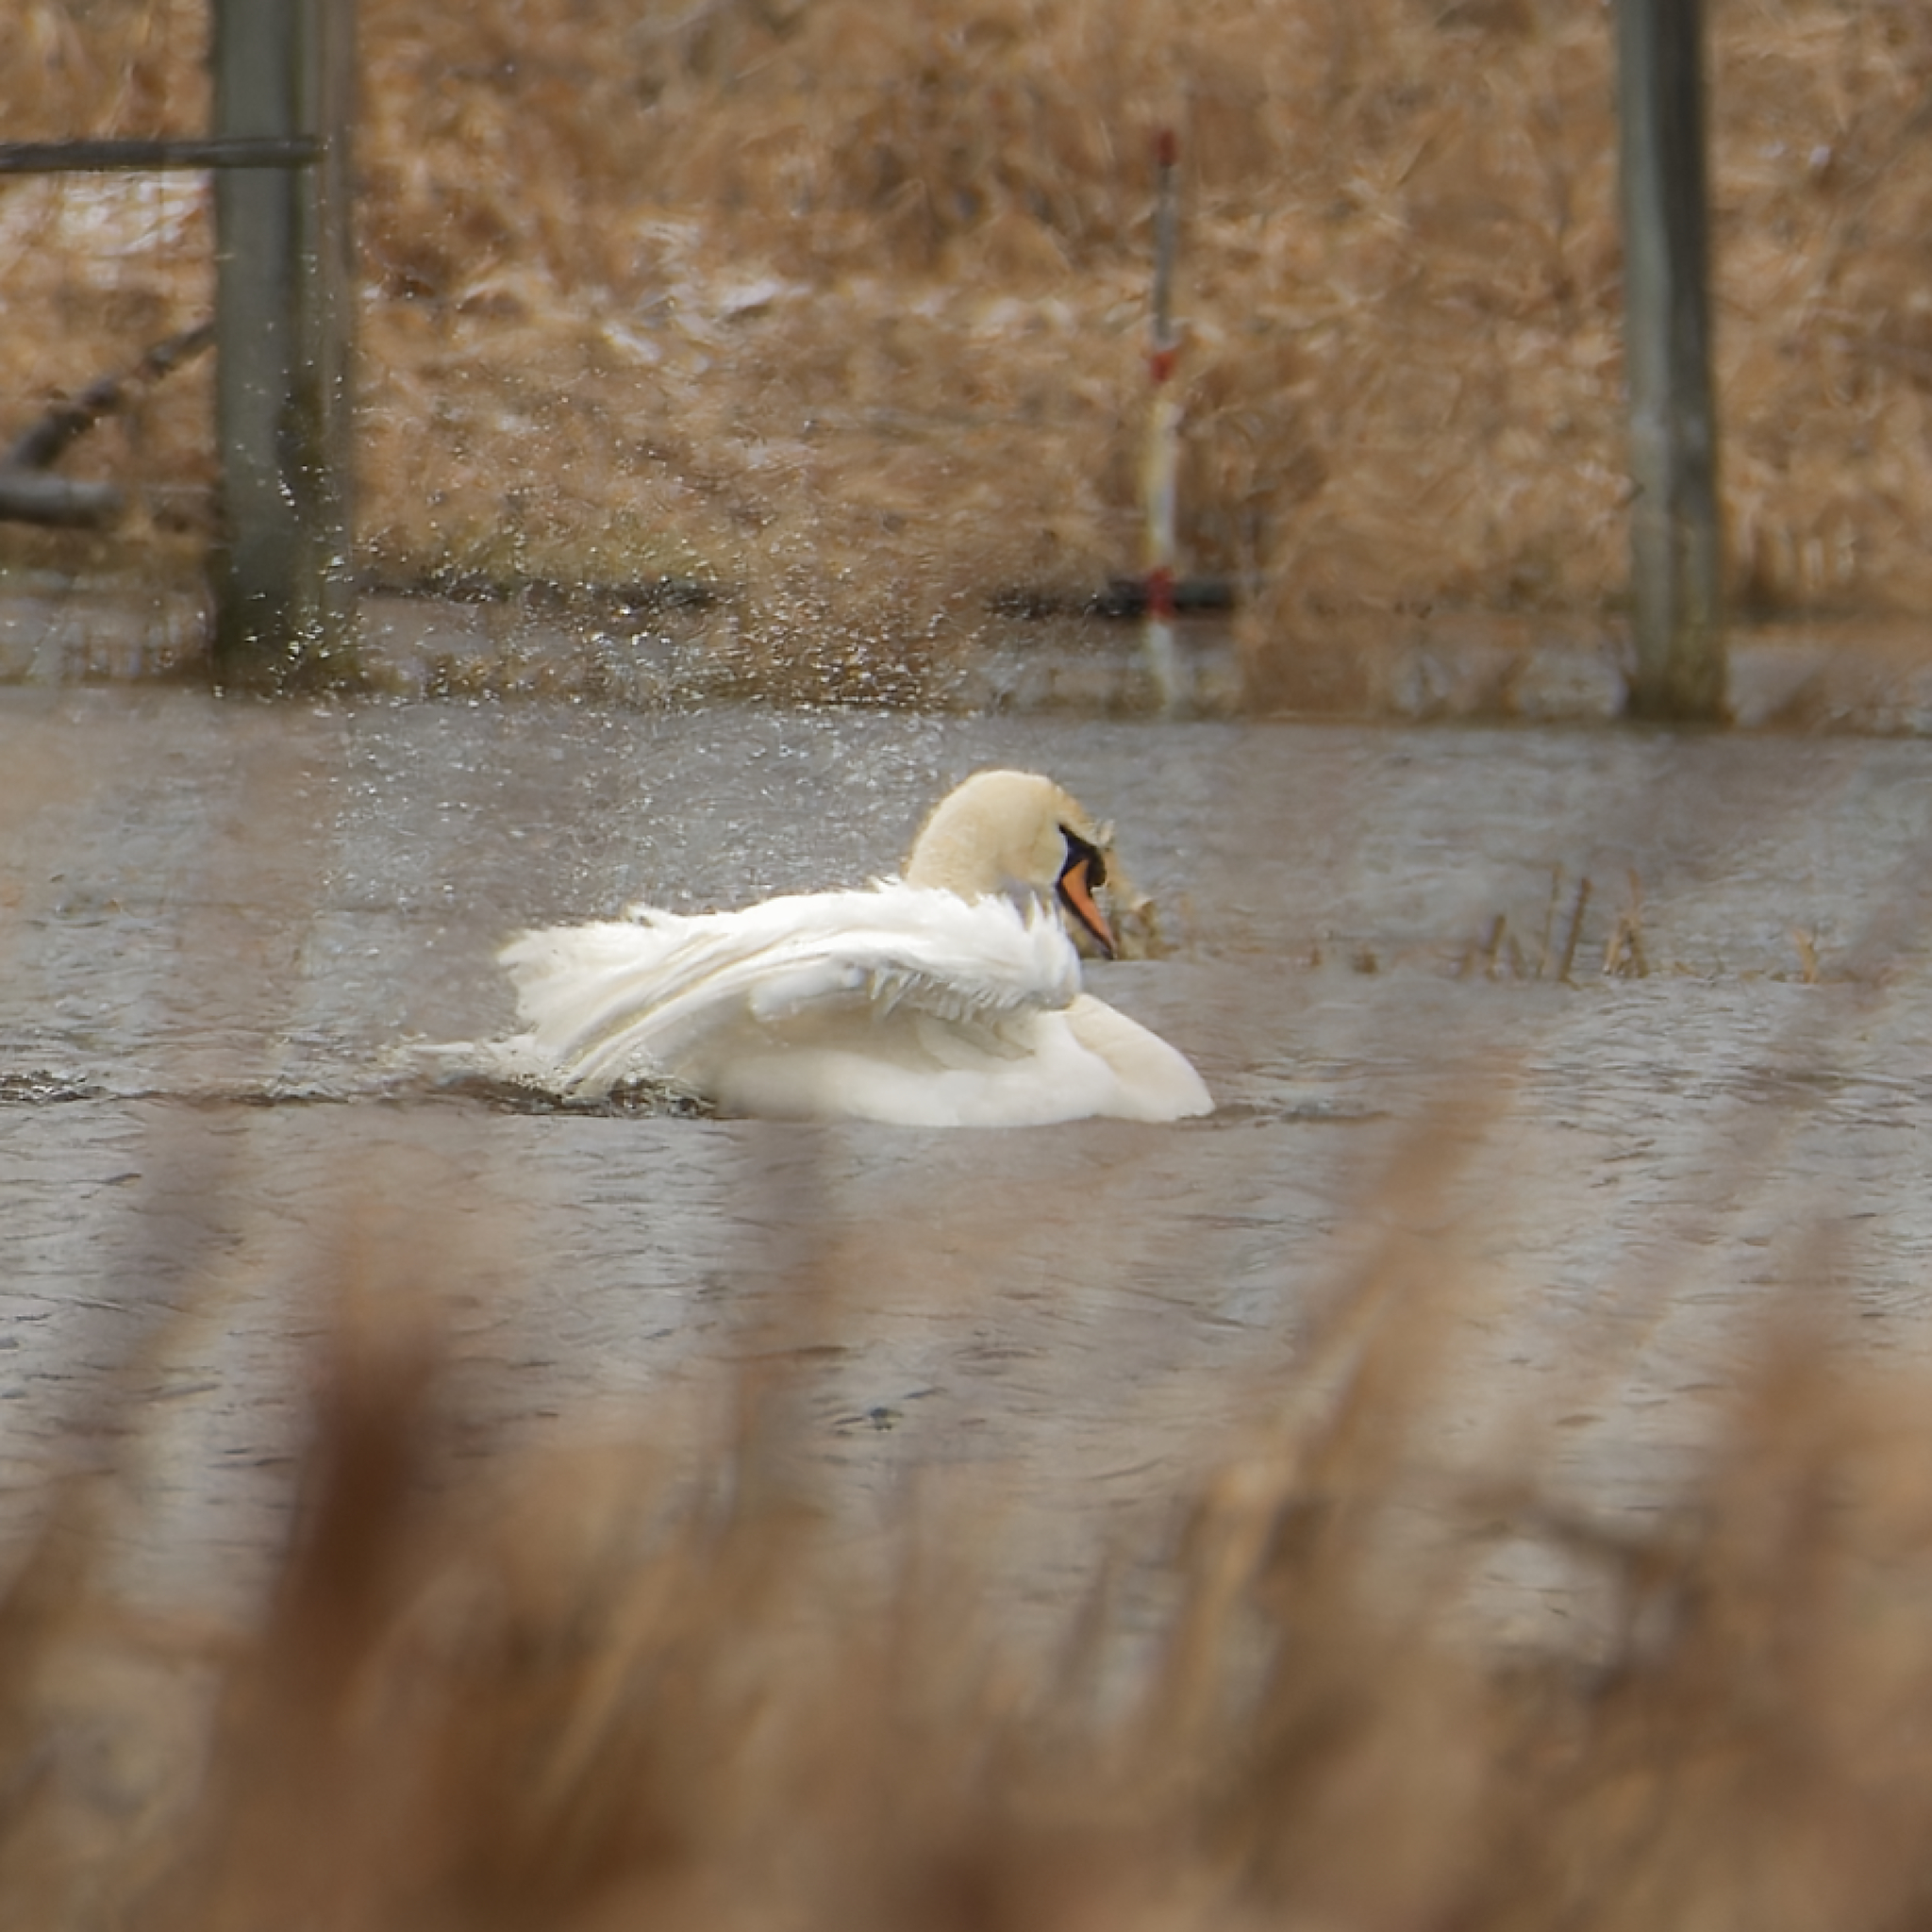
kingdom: Animalia
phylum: Chordata
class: Aves
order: Anseriformes
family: Anatidae
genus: Cygnus
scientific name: Cygnus olor
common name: Mute swan
